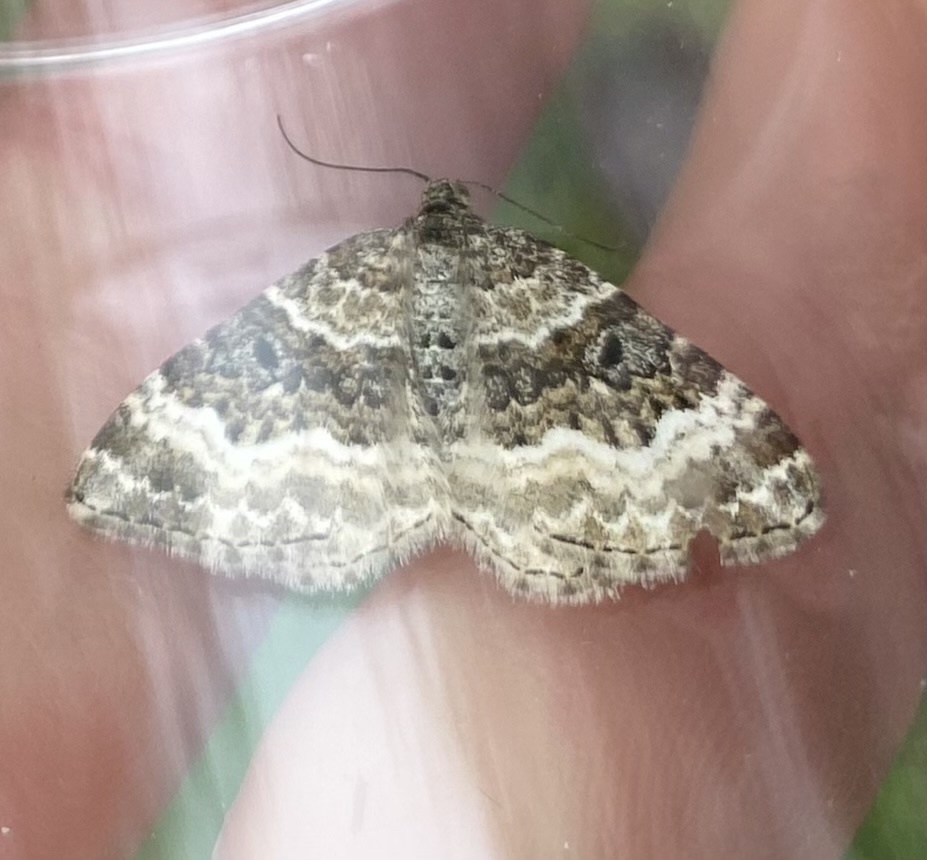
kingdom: Animalia
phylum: Arthropoda
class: Insecta
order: Lepidoptera
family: Geometridae
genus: Epirrhoe
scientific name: Epirrhoe alternata
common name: Common carpet
